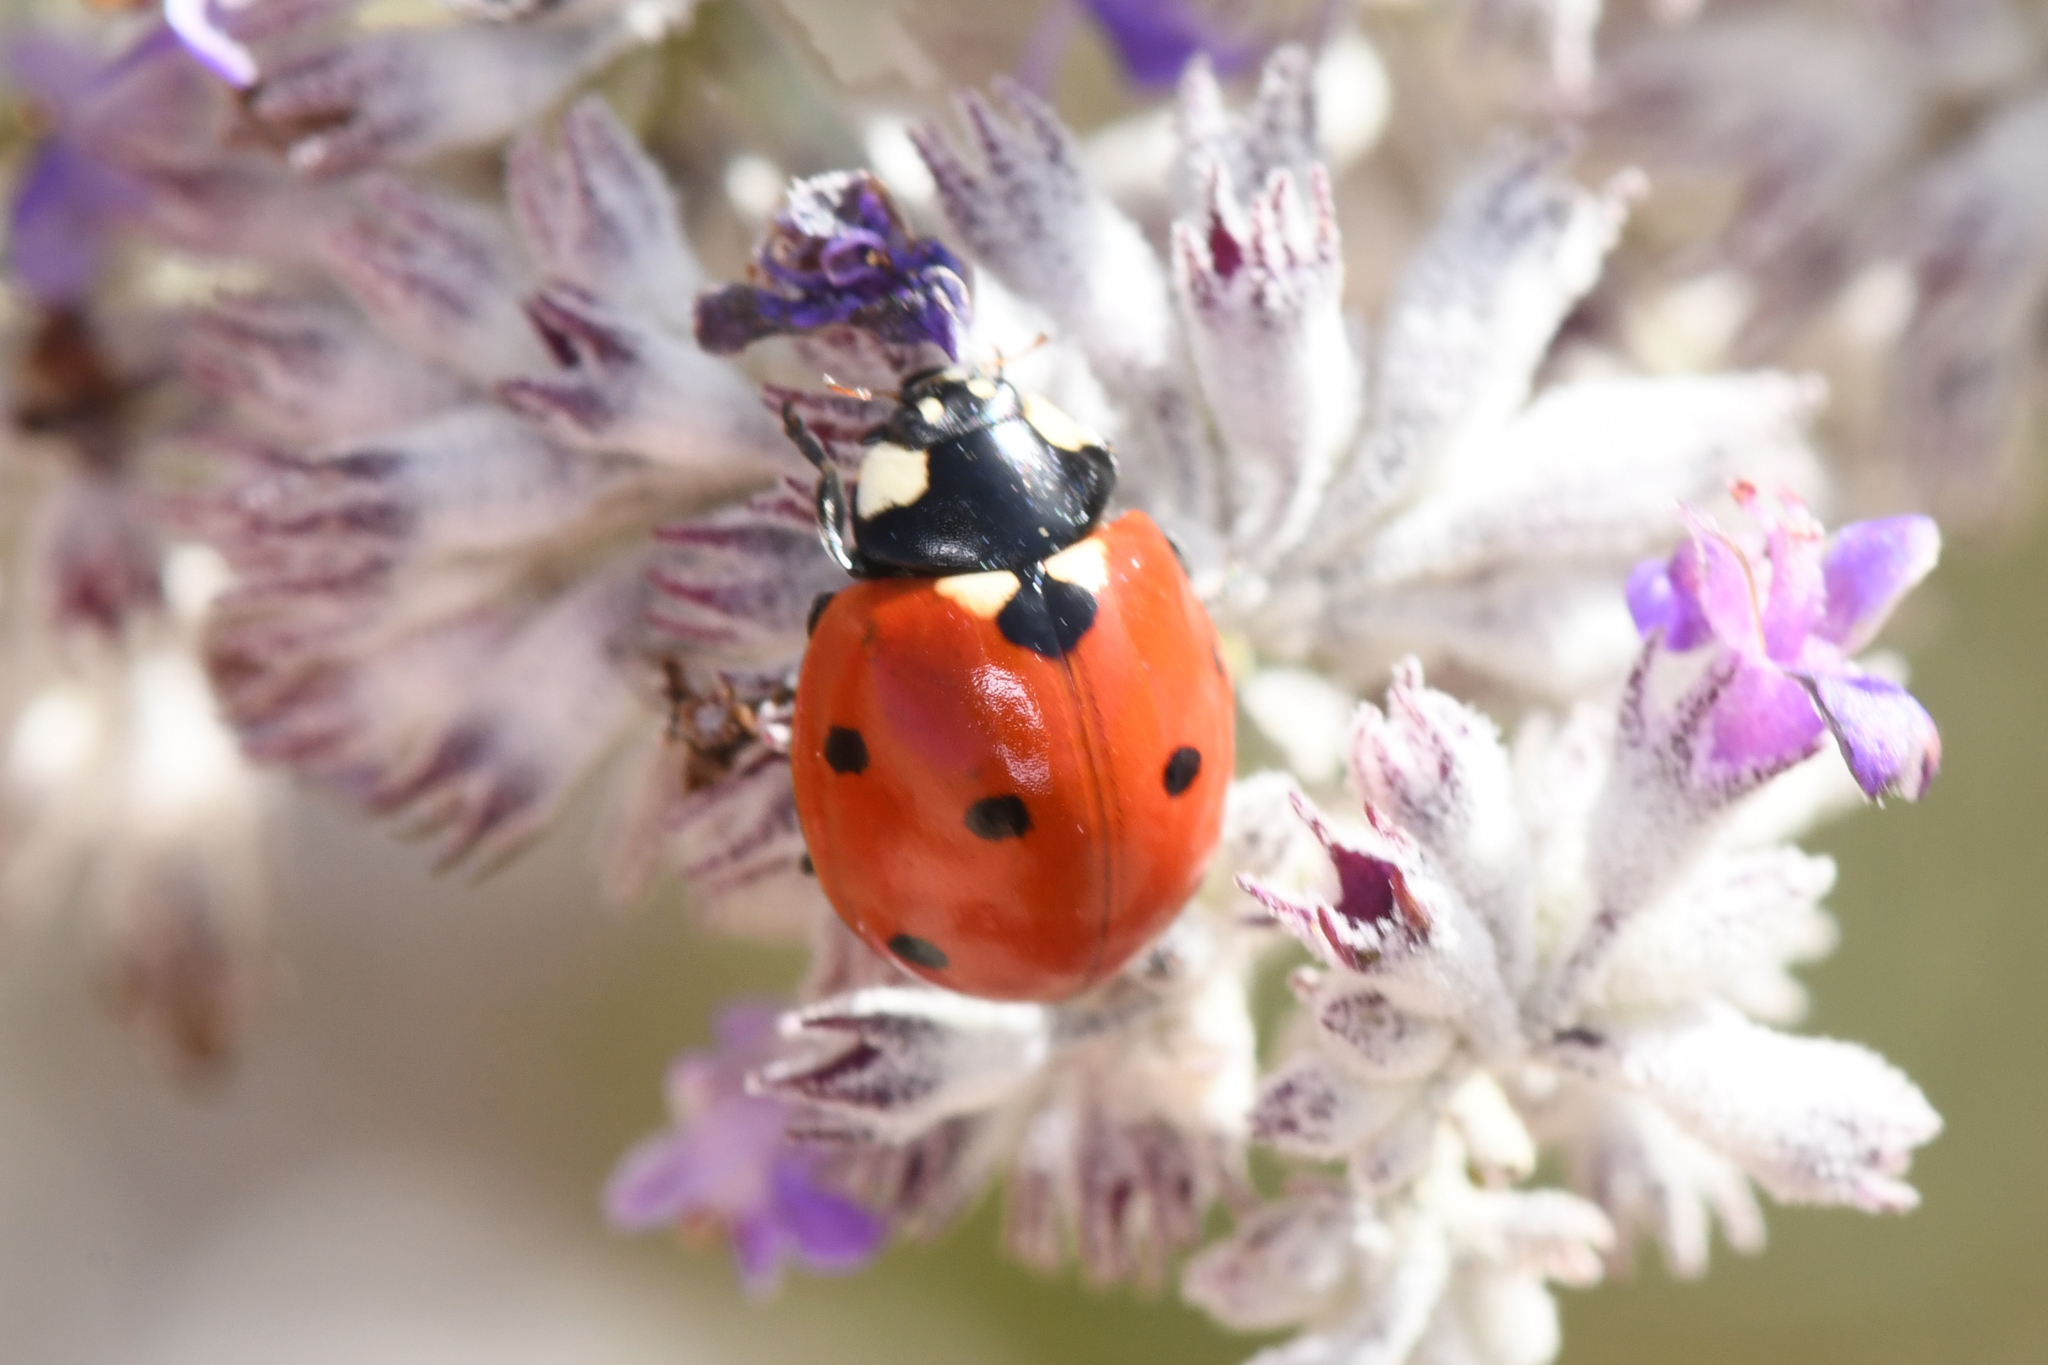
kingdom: Animalia
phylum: Arthropoda
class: Insecta
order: Coleoptera
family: Coccinellidae
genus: Coccinella
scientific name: Coccinella septempunctata
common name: Sevenspotted lady beetle
